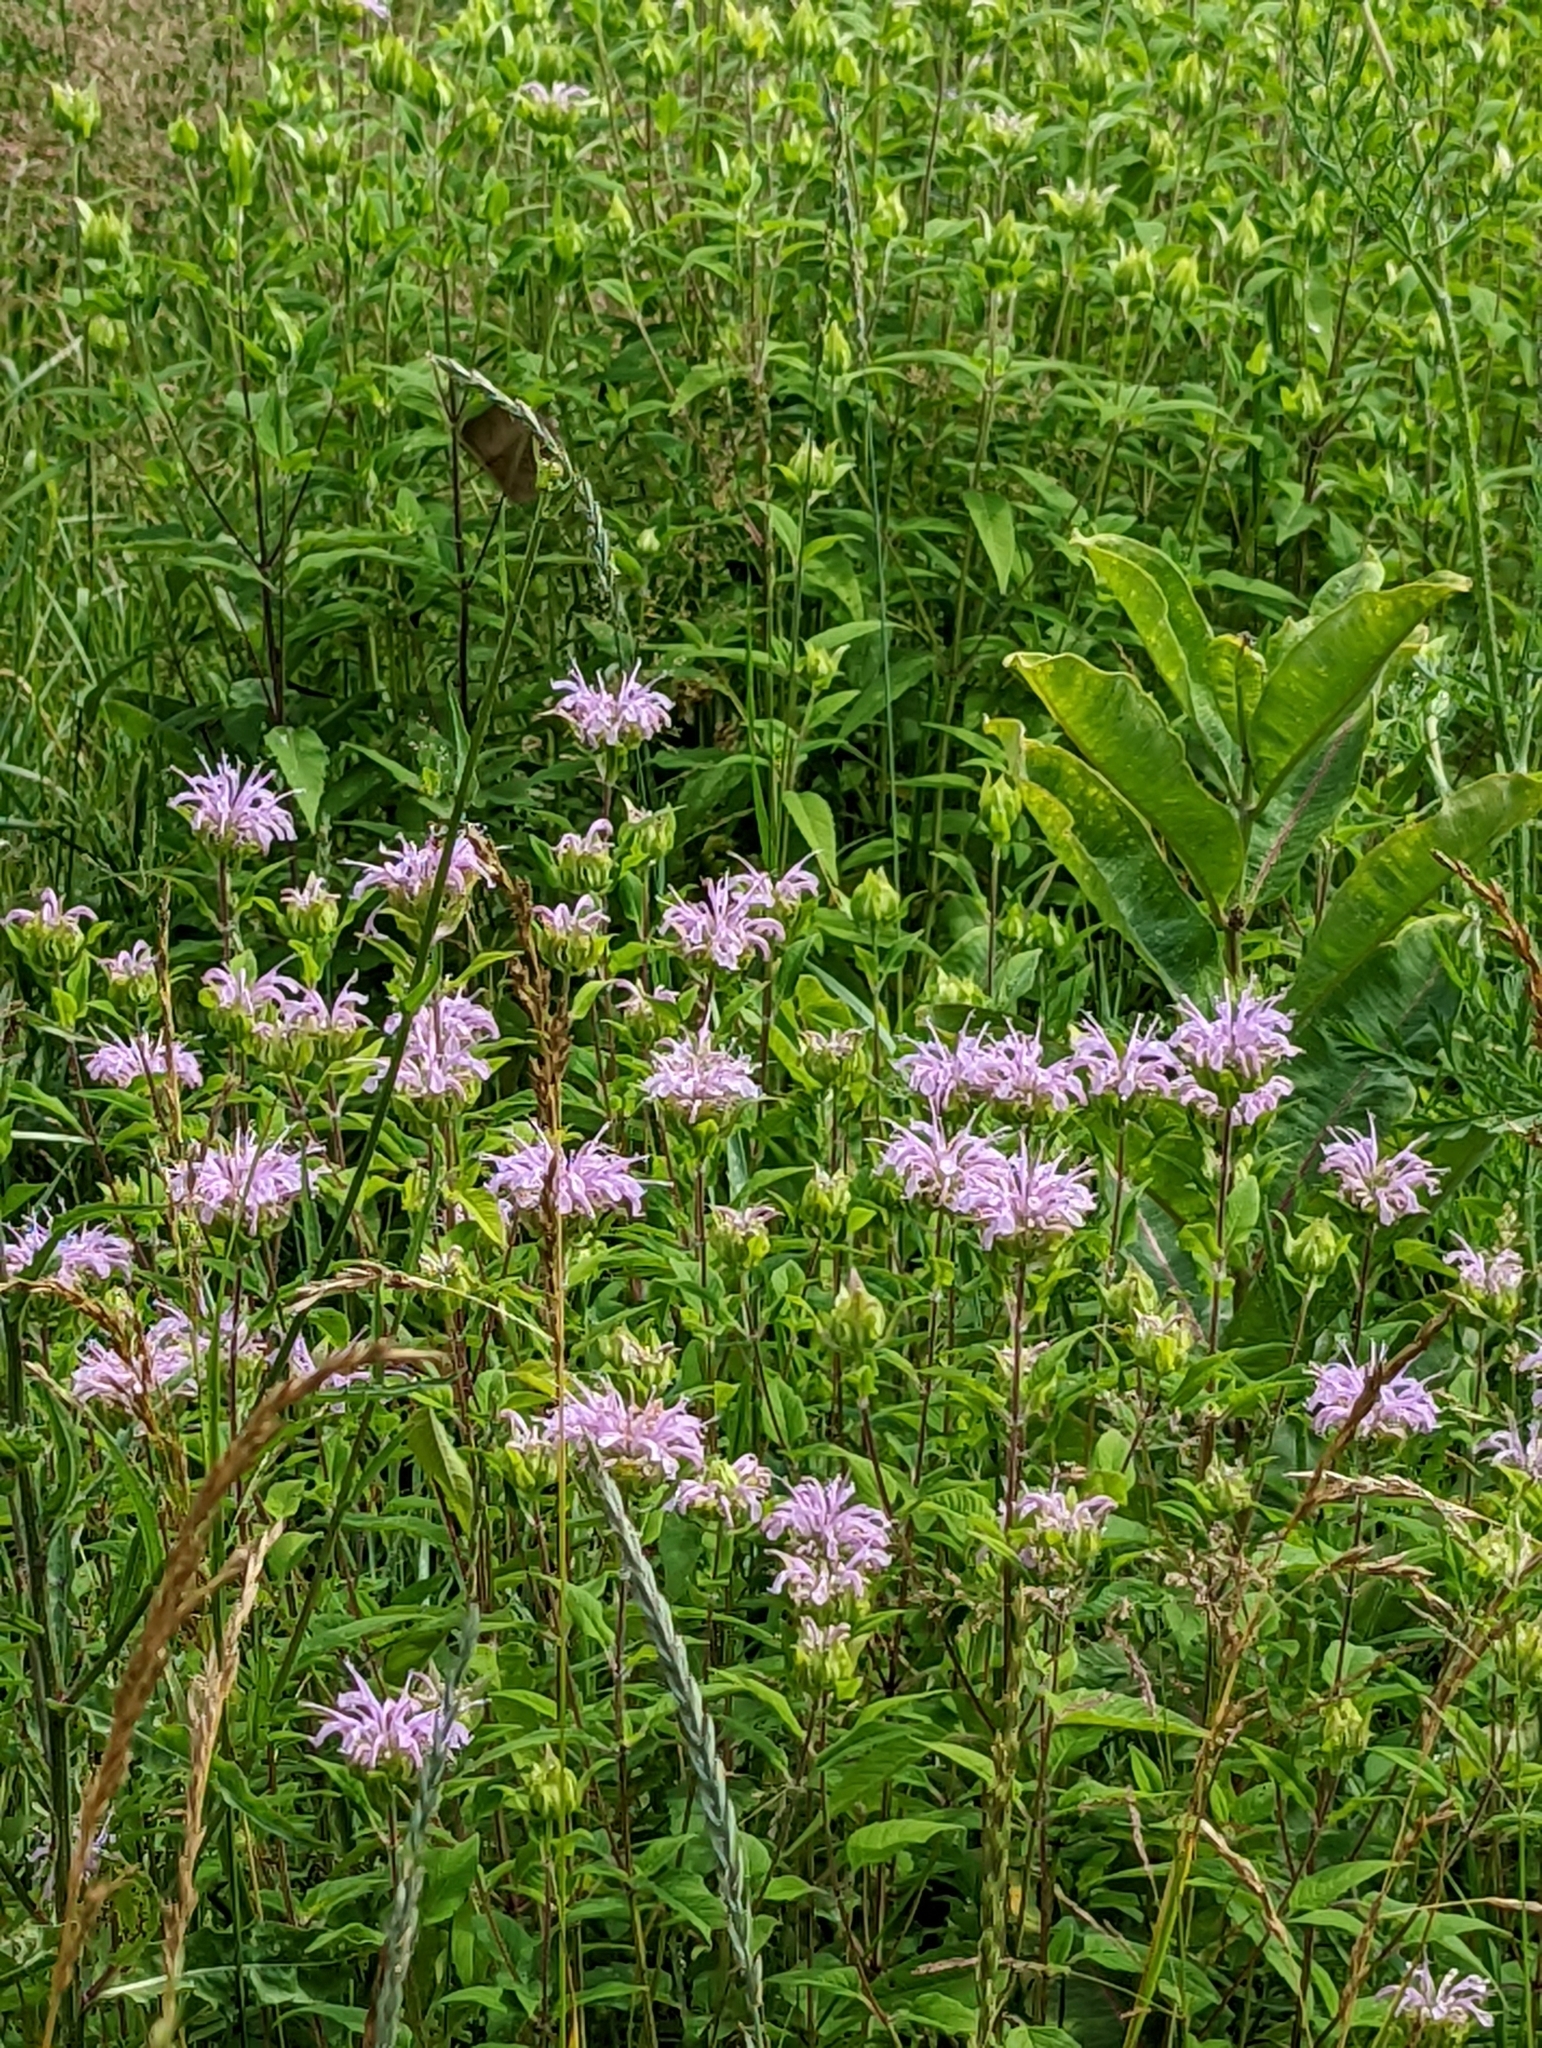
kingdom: Plantae
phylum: Tracheophyta
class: Magnoliopsida
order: Lamiales
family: Lamiaceae
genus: Monarda
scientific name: Monarda fistulosa
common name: Purple beebalm
